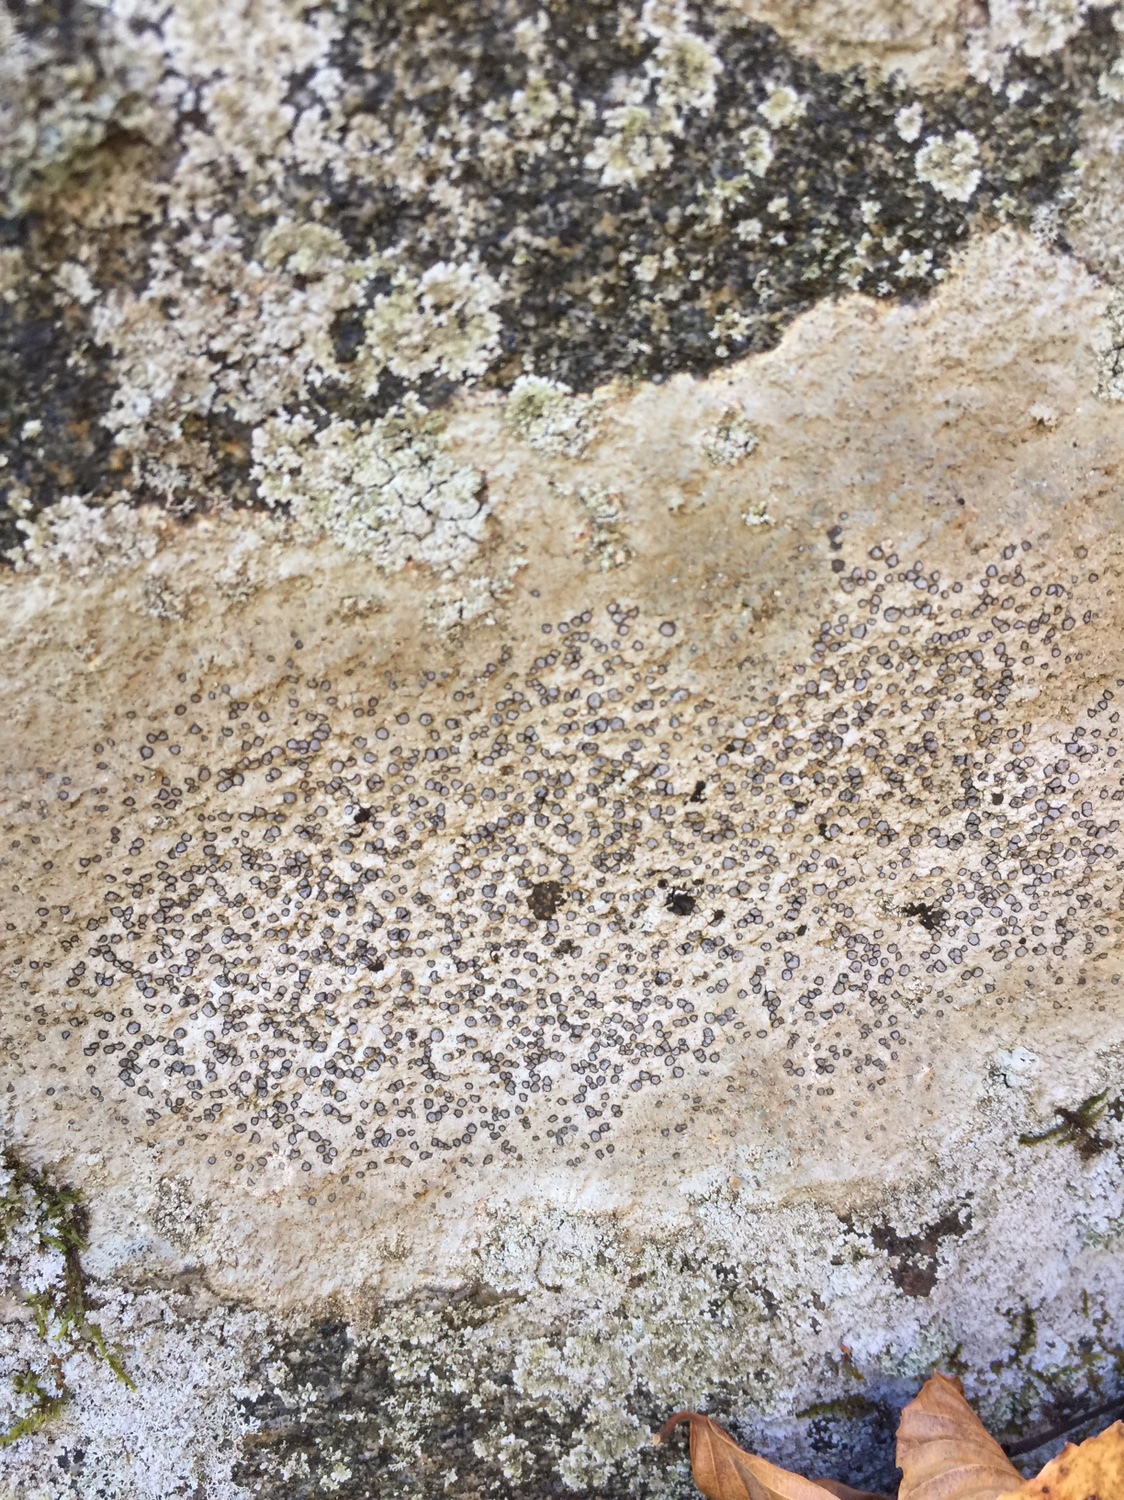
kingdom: Fungi
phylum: Ascomycota
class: Lecanoromycetes
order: Lecideales
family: Lecideaceae
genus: Porpidia
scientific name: Porpidia albocaerulescens
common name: Smokey-eyed boulder lichen
